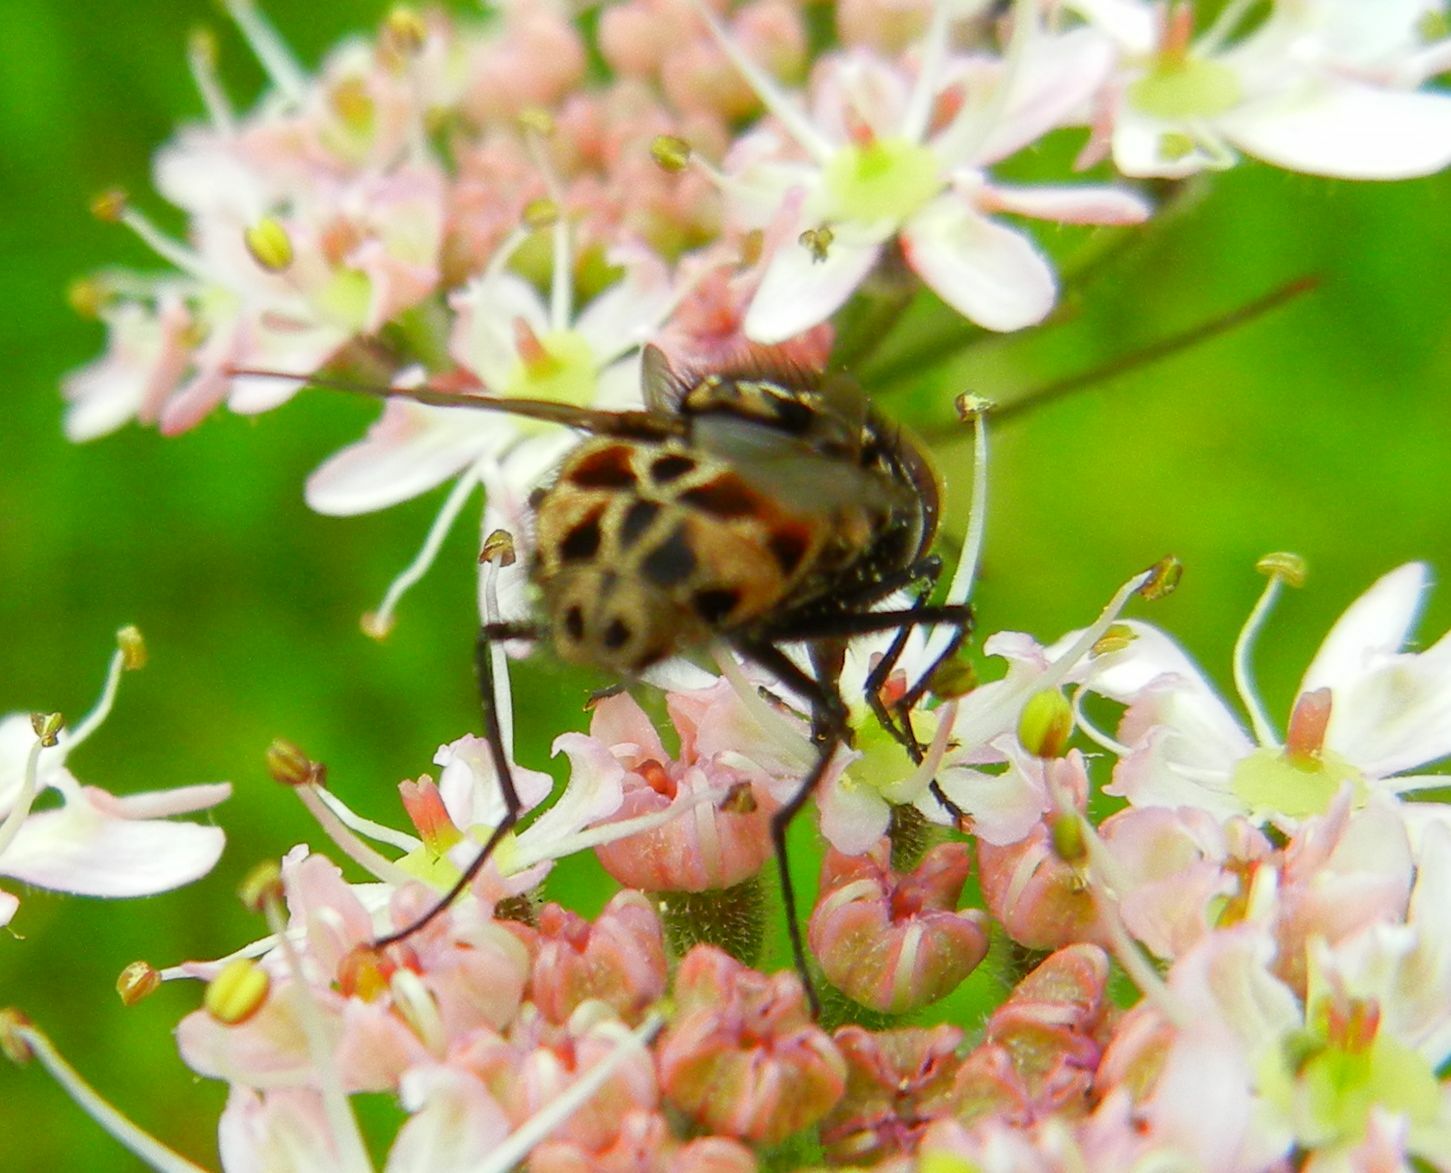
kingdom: Animalia
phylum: Arthropoda
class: Insecta
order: Diptera
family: Muscidae
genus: Graphomya
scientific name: Graphomya maculata
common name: Muscid fly
